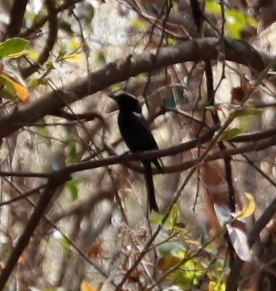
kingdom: Animalia
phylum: Chordata
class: Aves
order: Passeriformes
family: Dicruridae
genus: Dicrurus
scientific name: Dicrurus adsimilis
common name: Fork-tailed drongo
